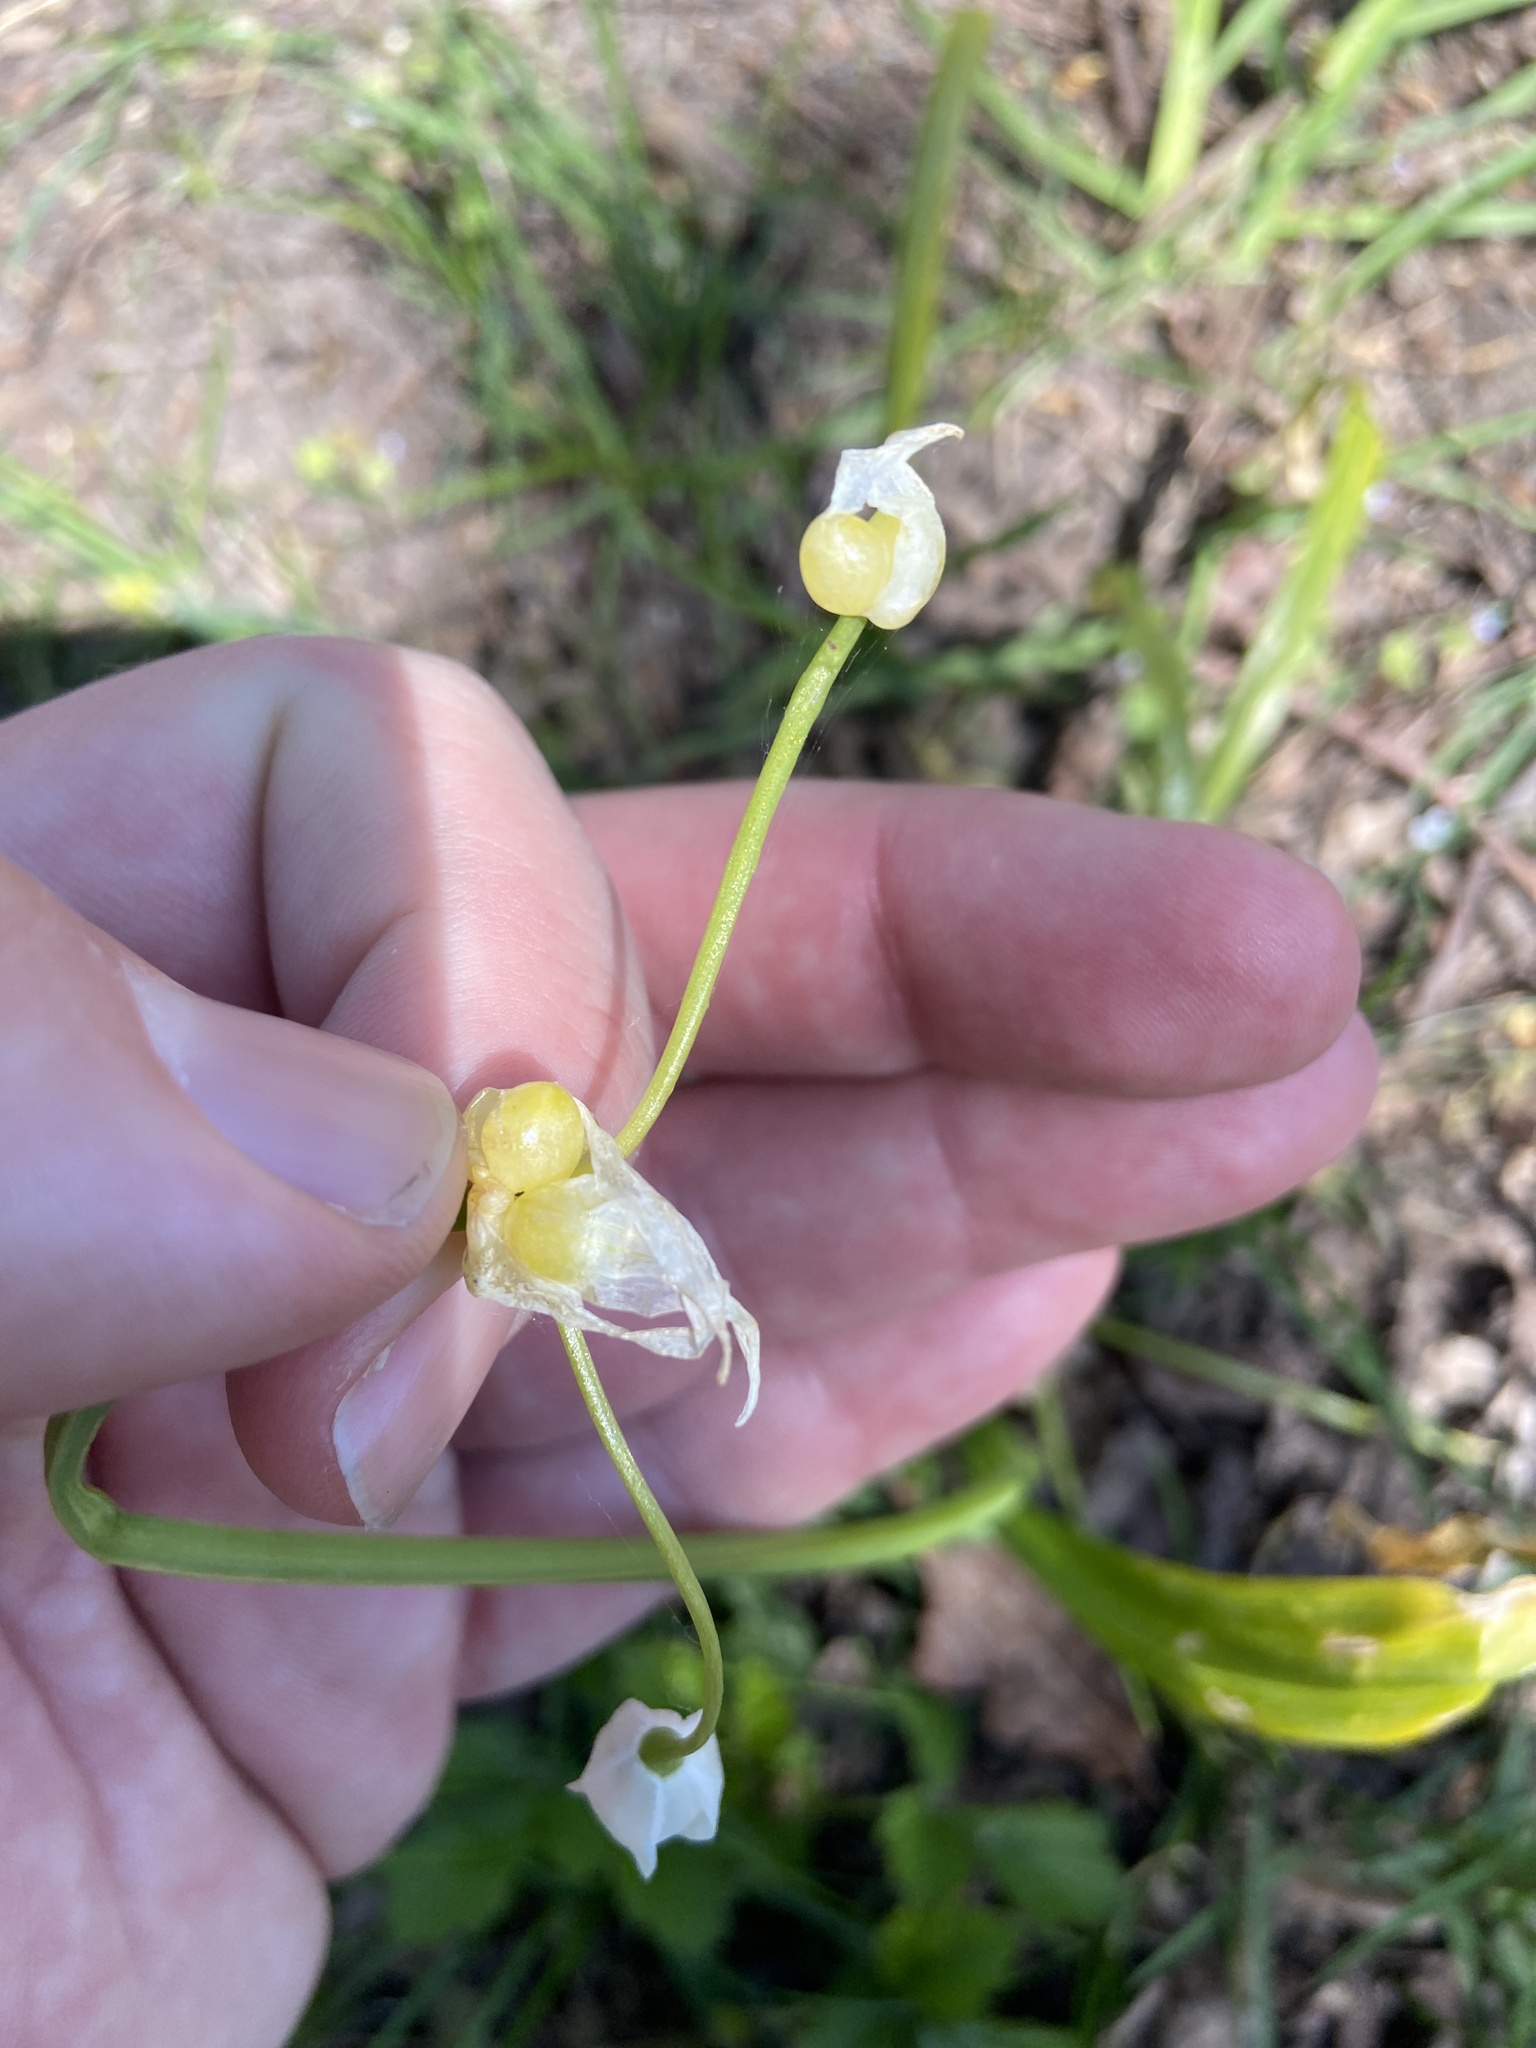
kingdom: Plantae
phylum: Tracheophyta
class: Liliopsida
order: Asparagales
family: Amaryllidaceae
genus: Allium
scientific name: Allium paradoxum
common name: Few-flowered garlic
